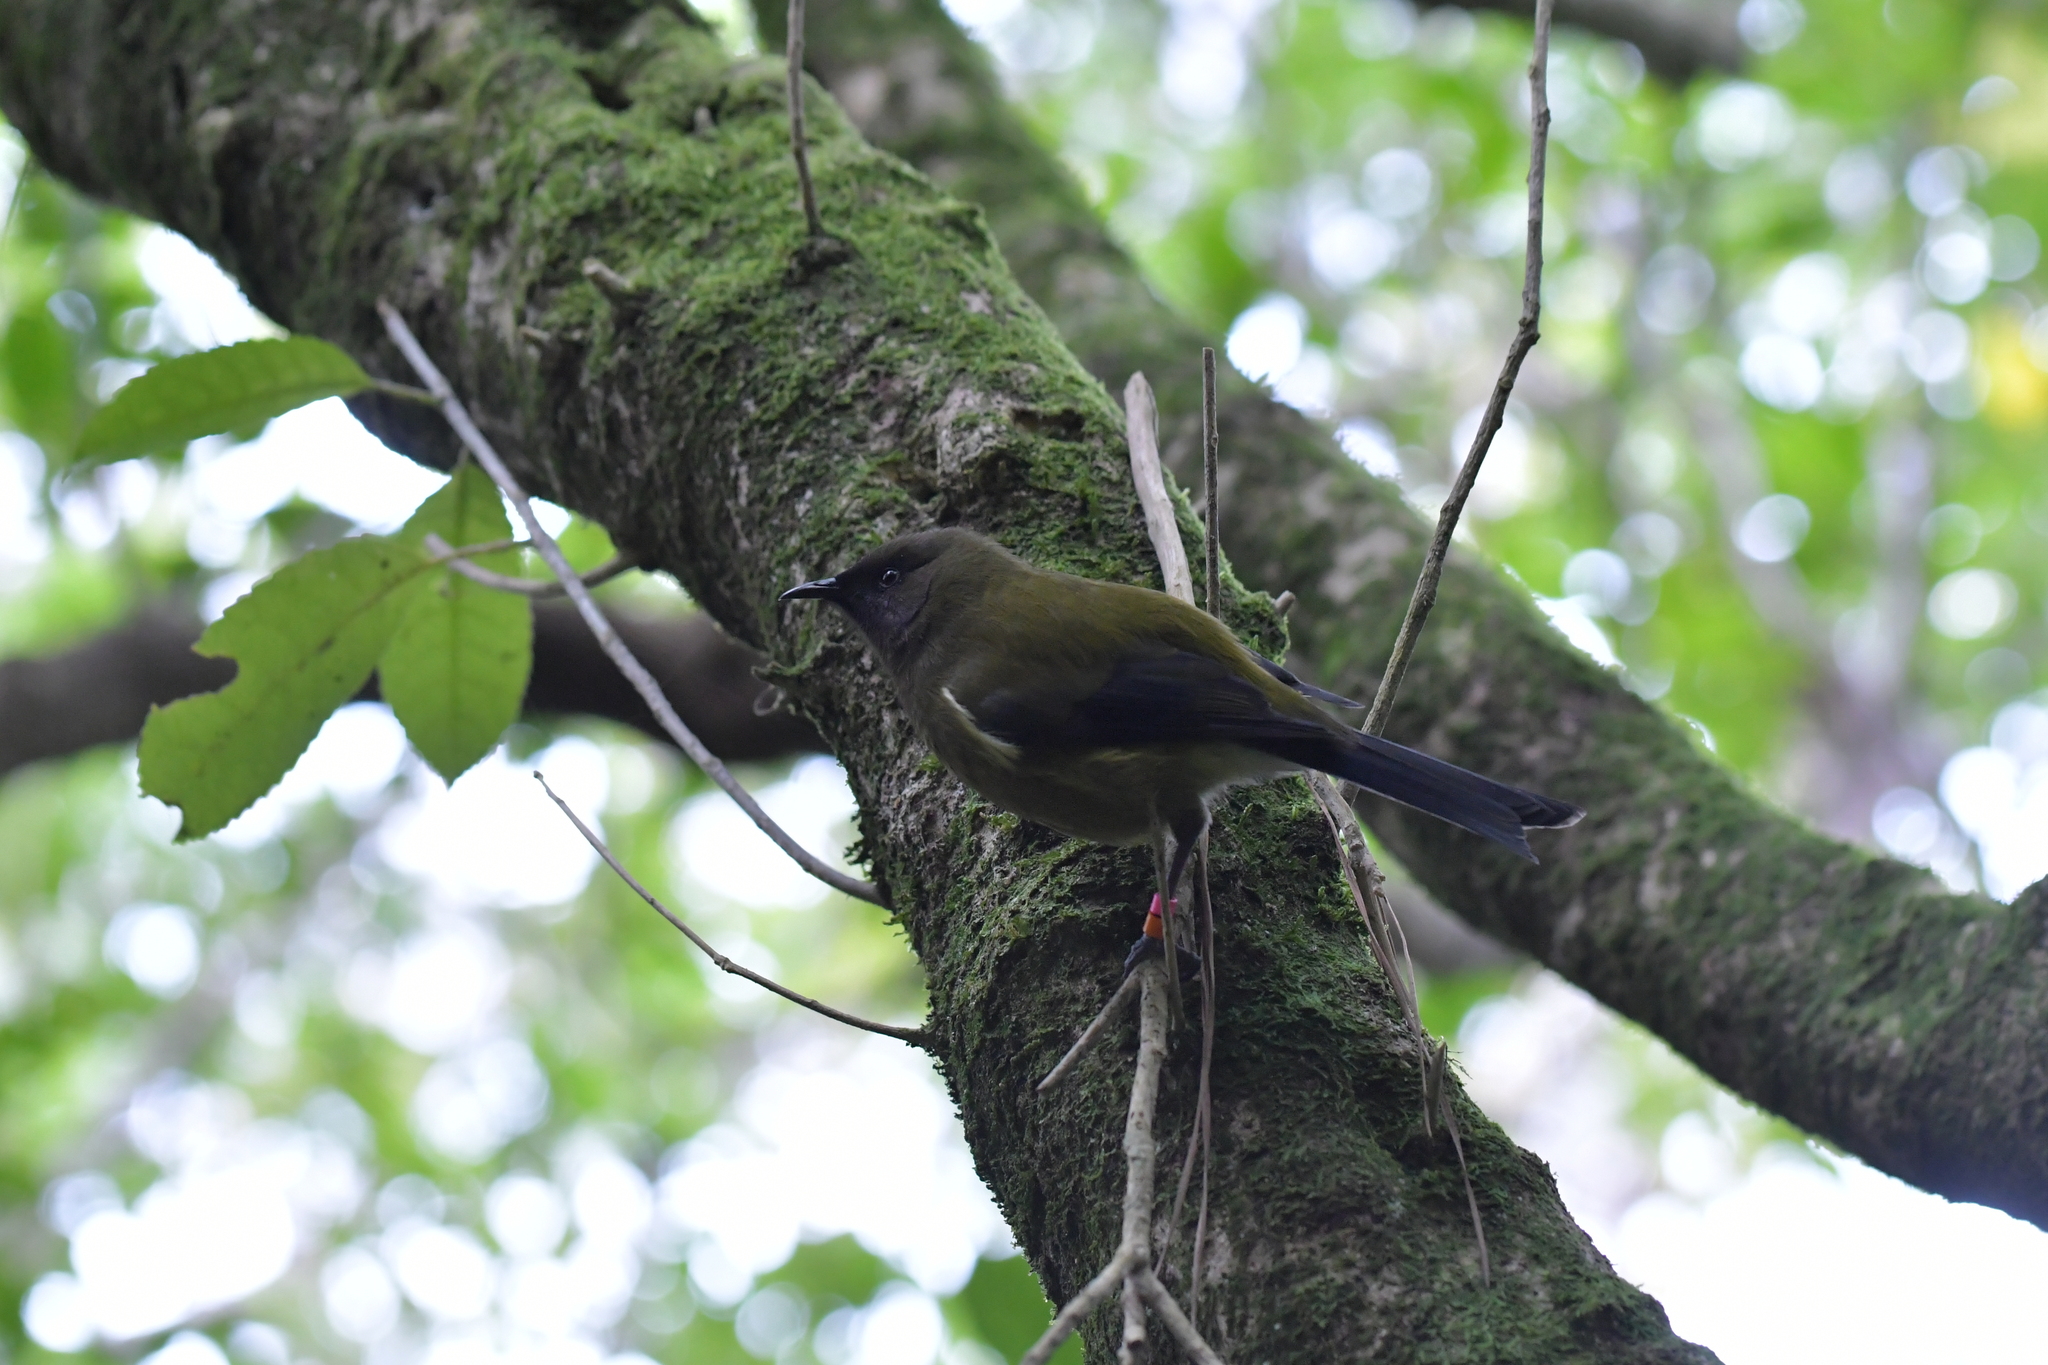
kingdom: Animalia
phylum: Chordata
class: Aves
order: Passeriformes
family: Meliphagidae
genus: Anthornis
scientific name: Anthornis melanura
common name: New zealand bellbird
